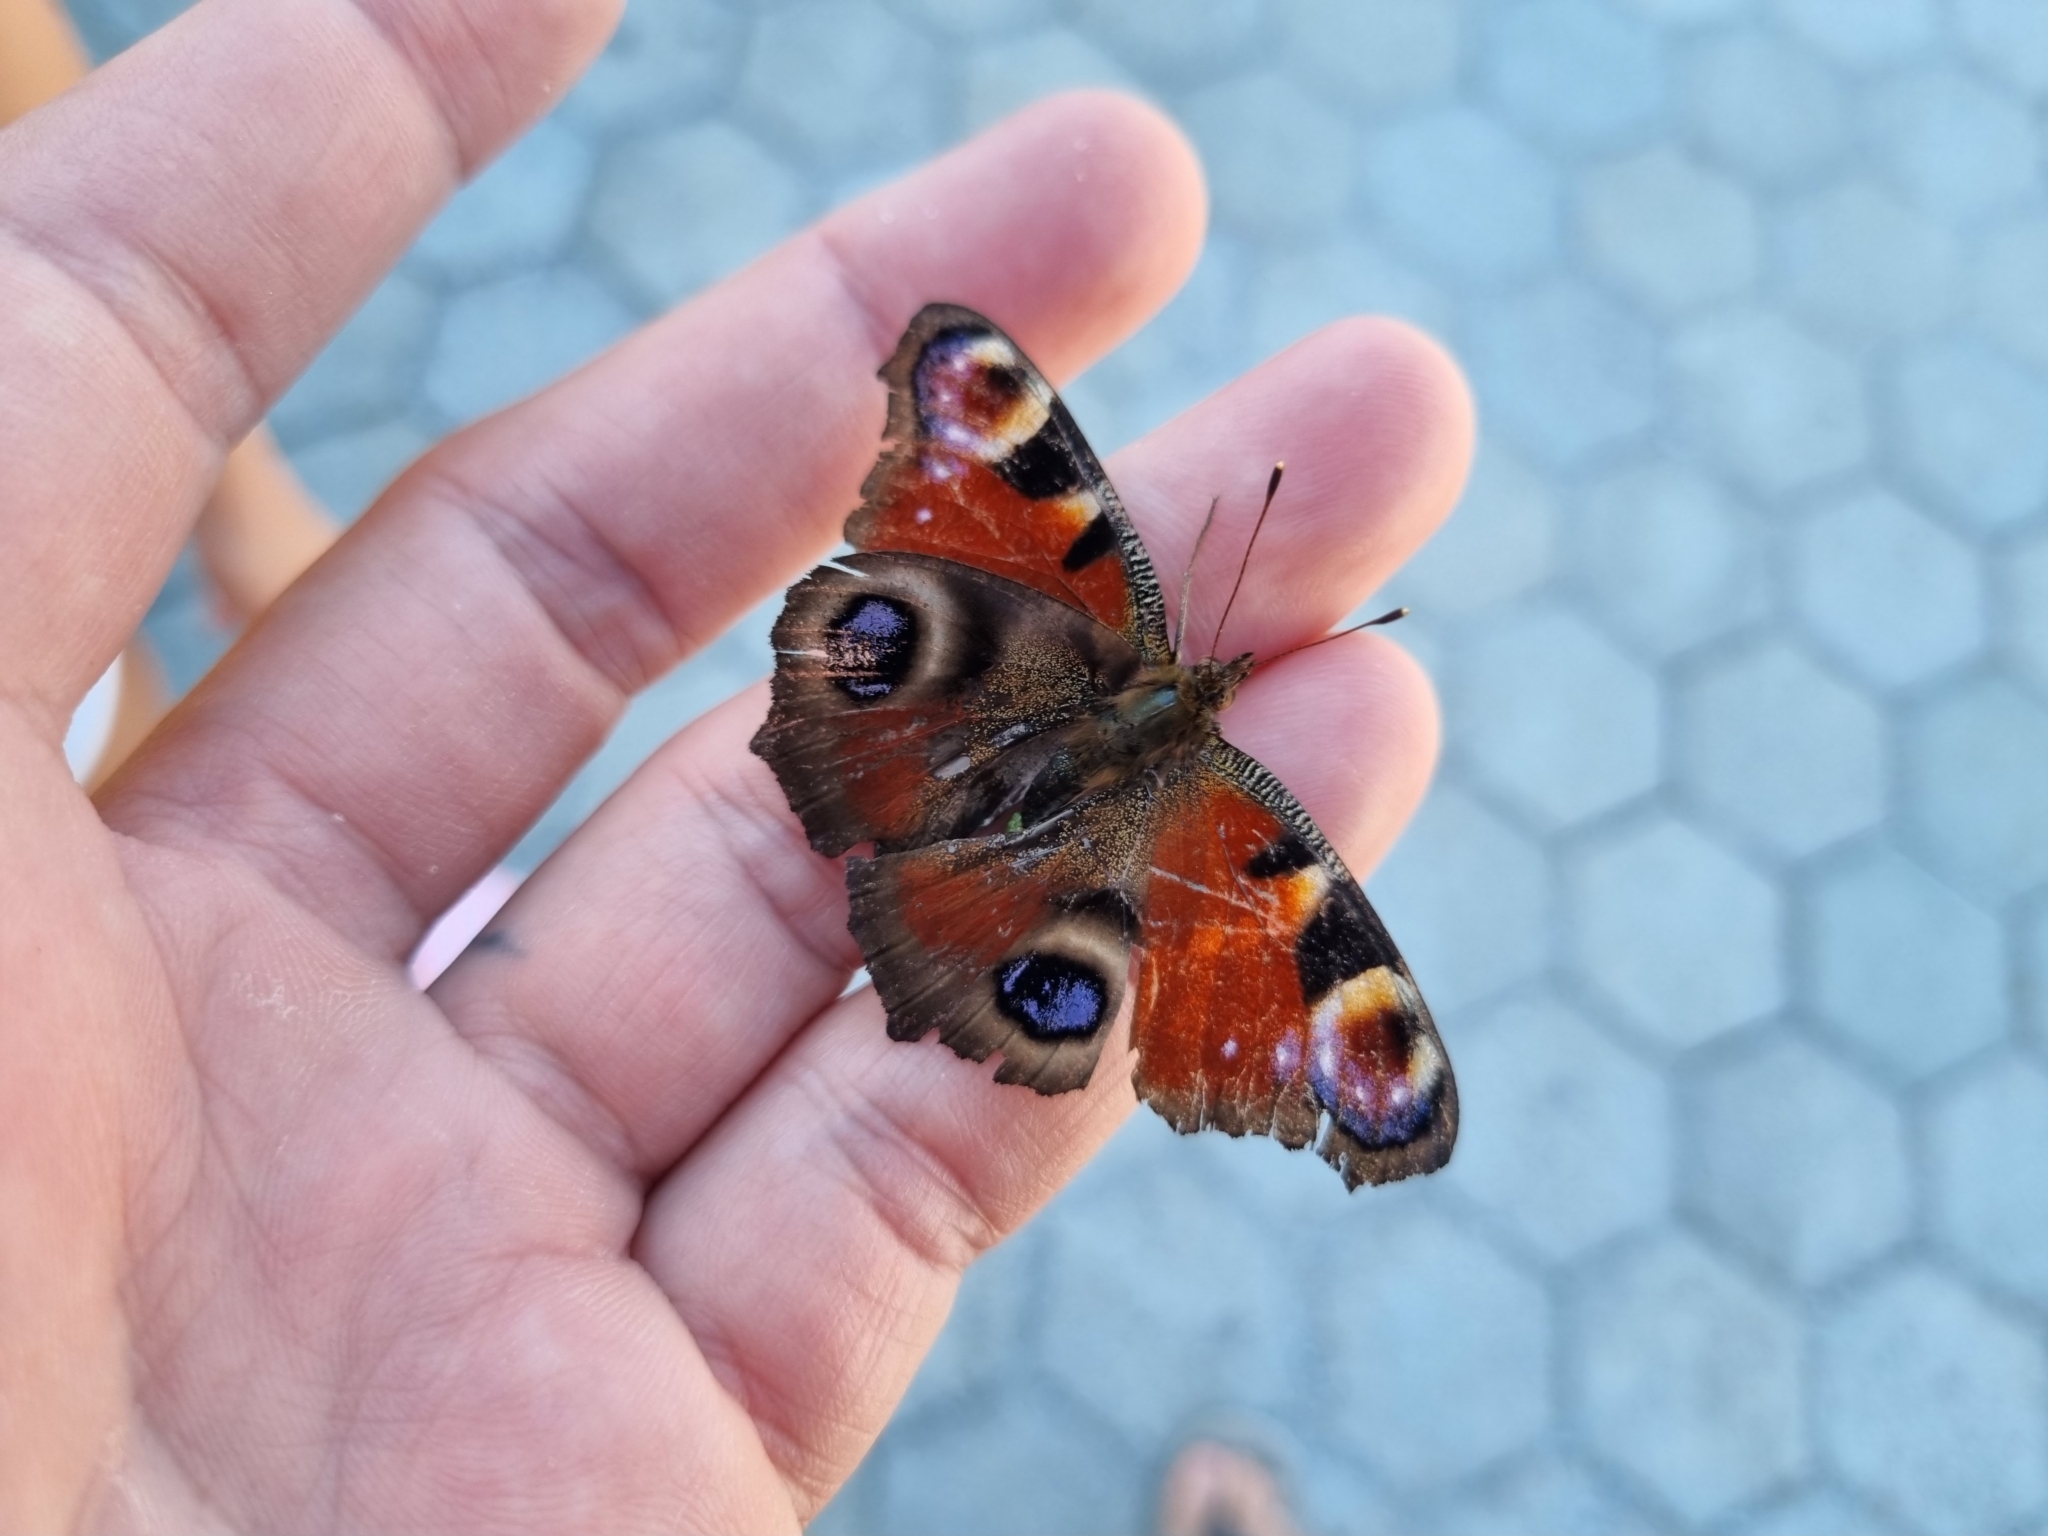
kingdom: Animalia
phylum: Arthropoda
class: Insecta
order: Lepidoptera
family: Nymphalidae
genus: Aglais
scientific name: Aglais io
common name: Peacock
